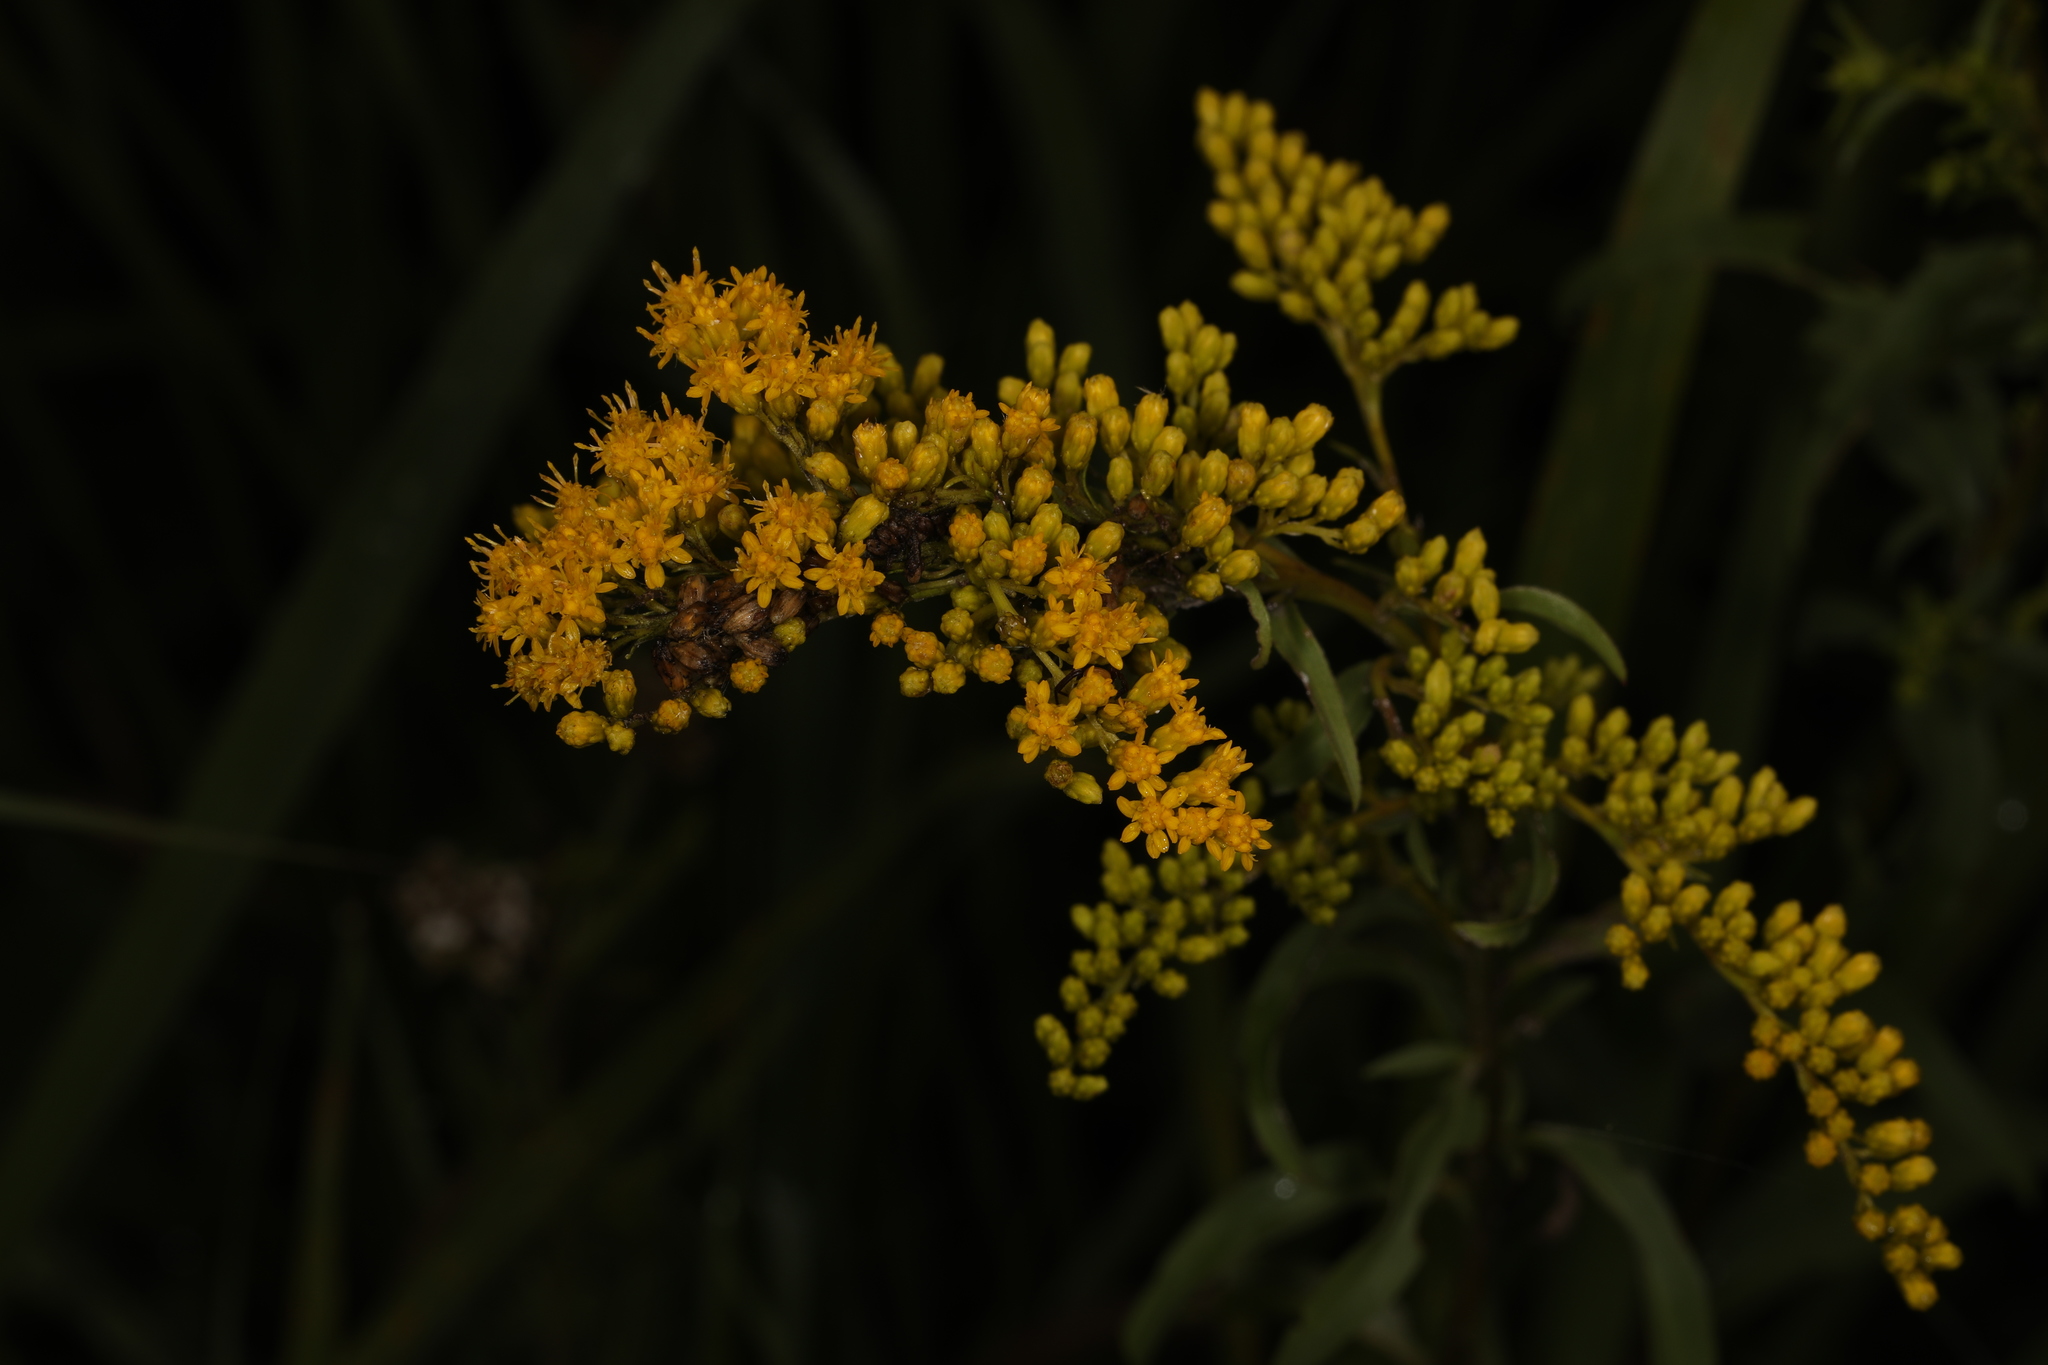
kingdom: Plantae
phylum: Tracheophyta
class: Magnoliopsida
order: Asterales
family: Asteraceae
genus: Solidago
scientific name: Solidago juncea
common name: Early goldenrod
